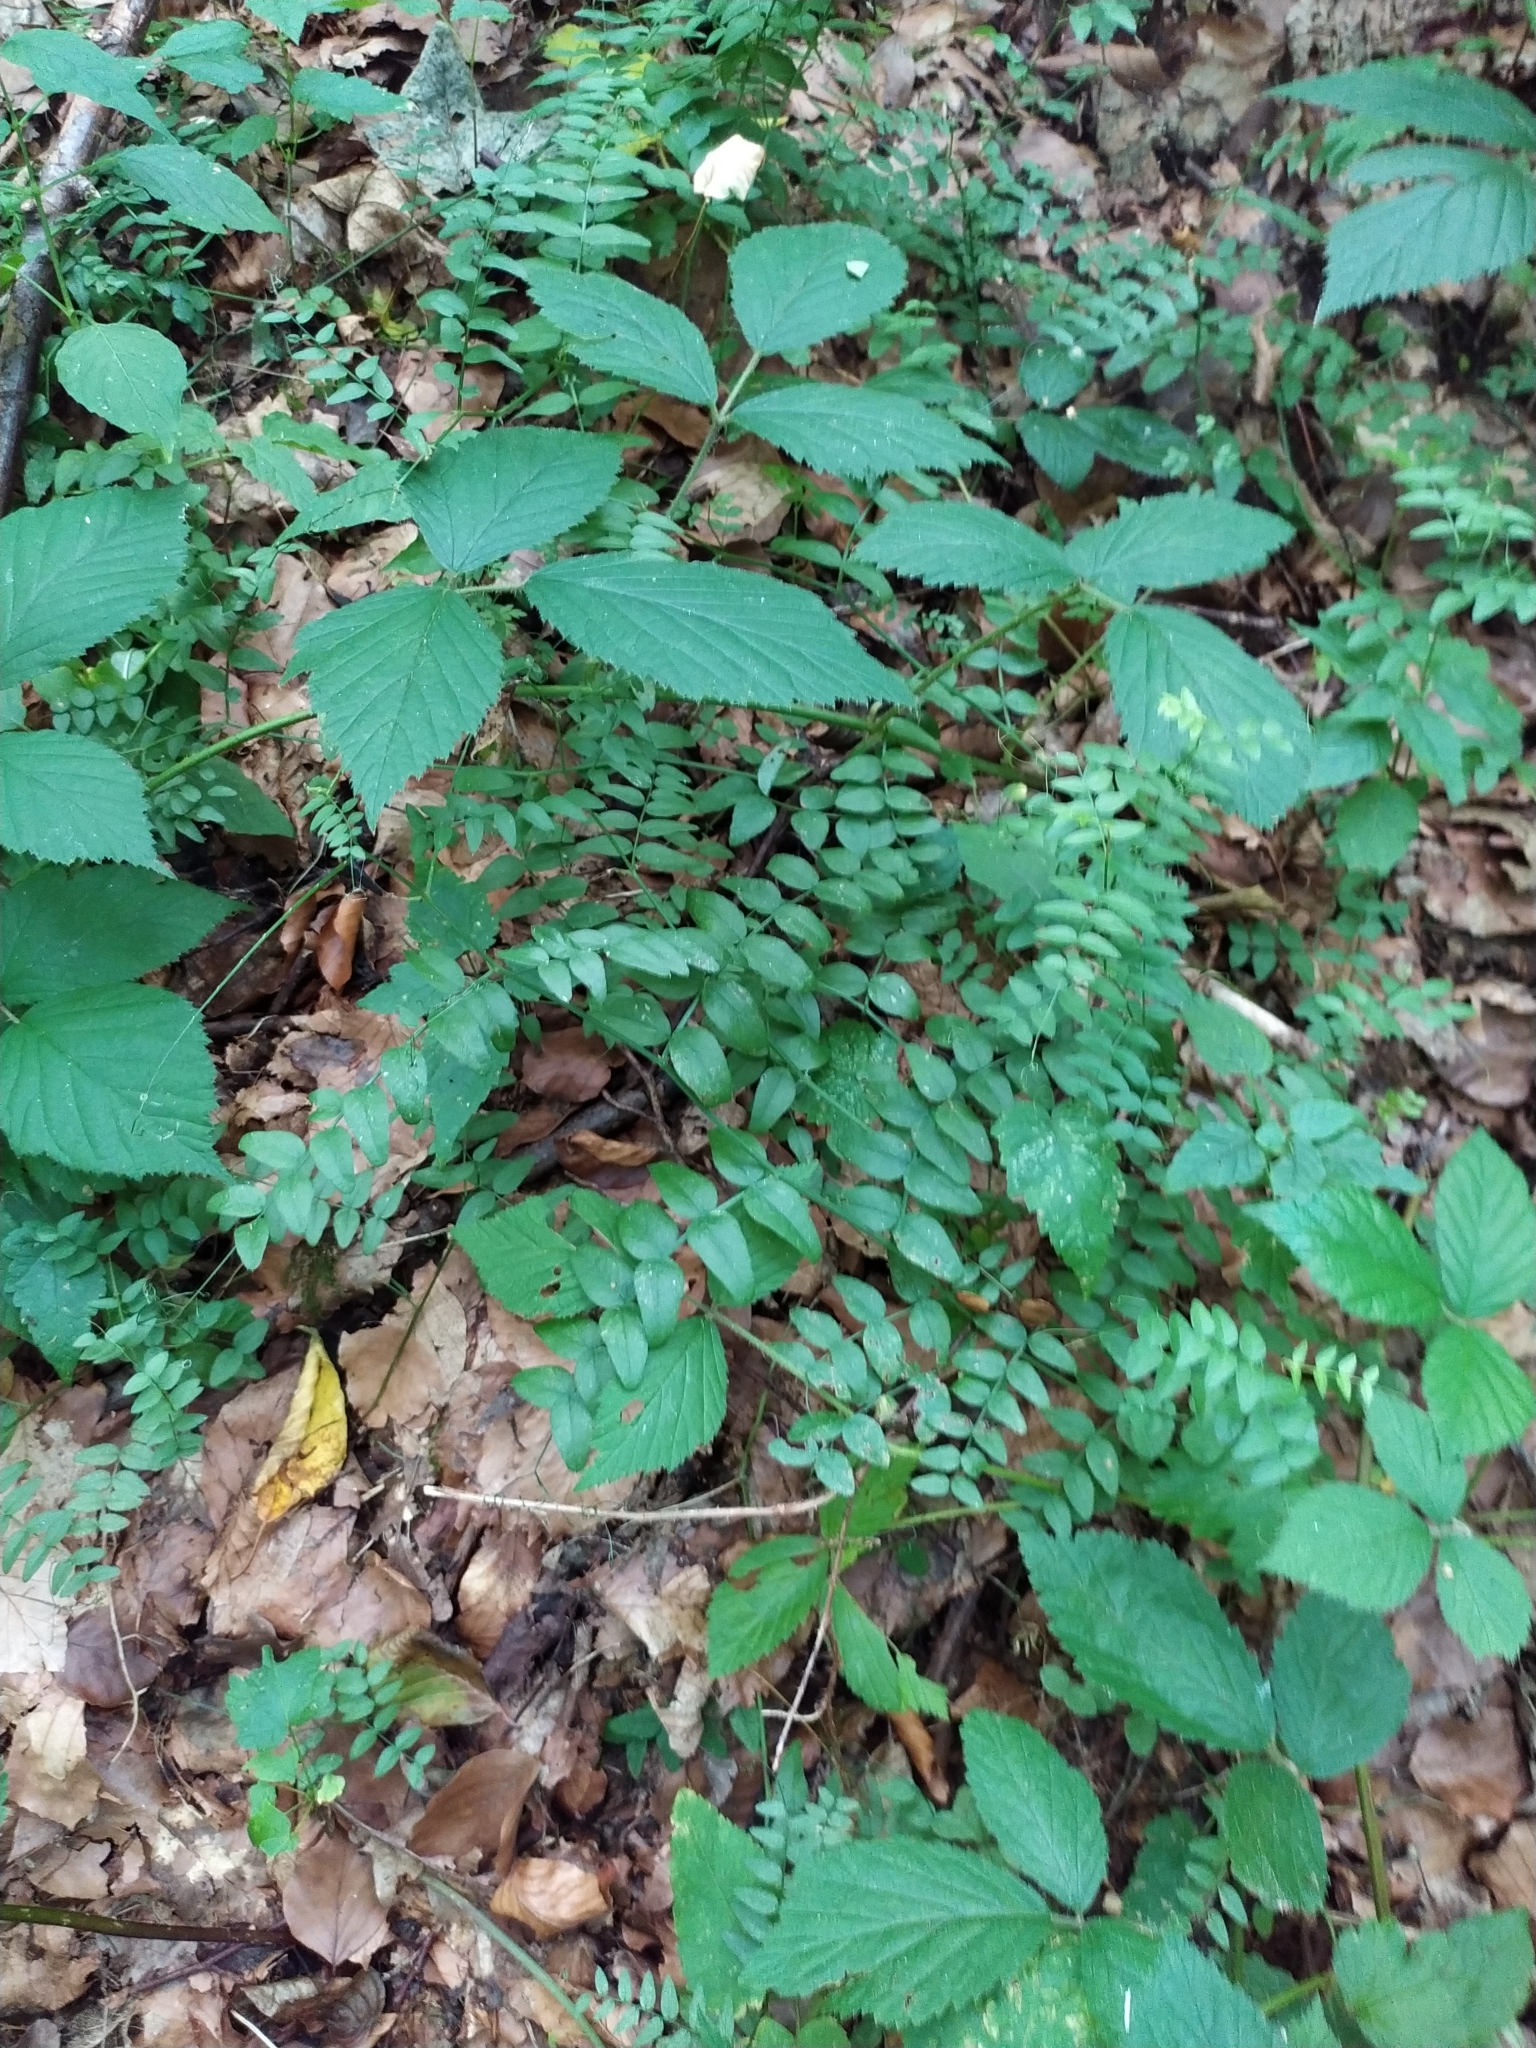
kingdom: Plantae
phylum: Tracheophyta
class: Magnoliopsida
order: Fabales
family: Fabaceae
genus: Vicia
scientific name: Vicia sepium
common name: Bush vetch
